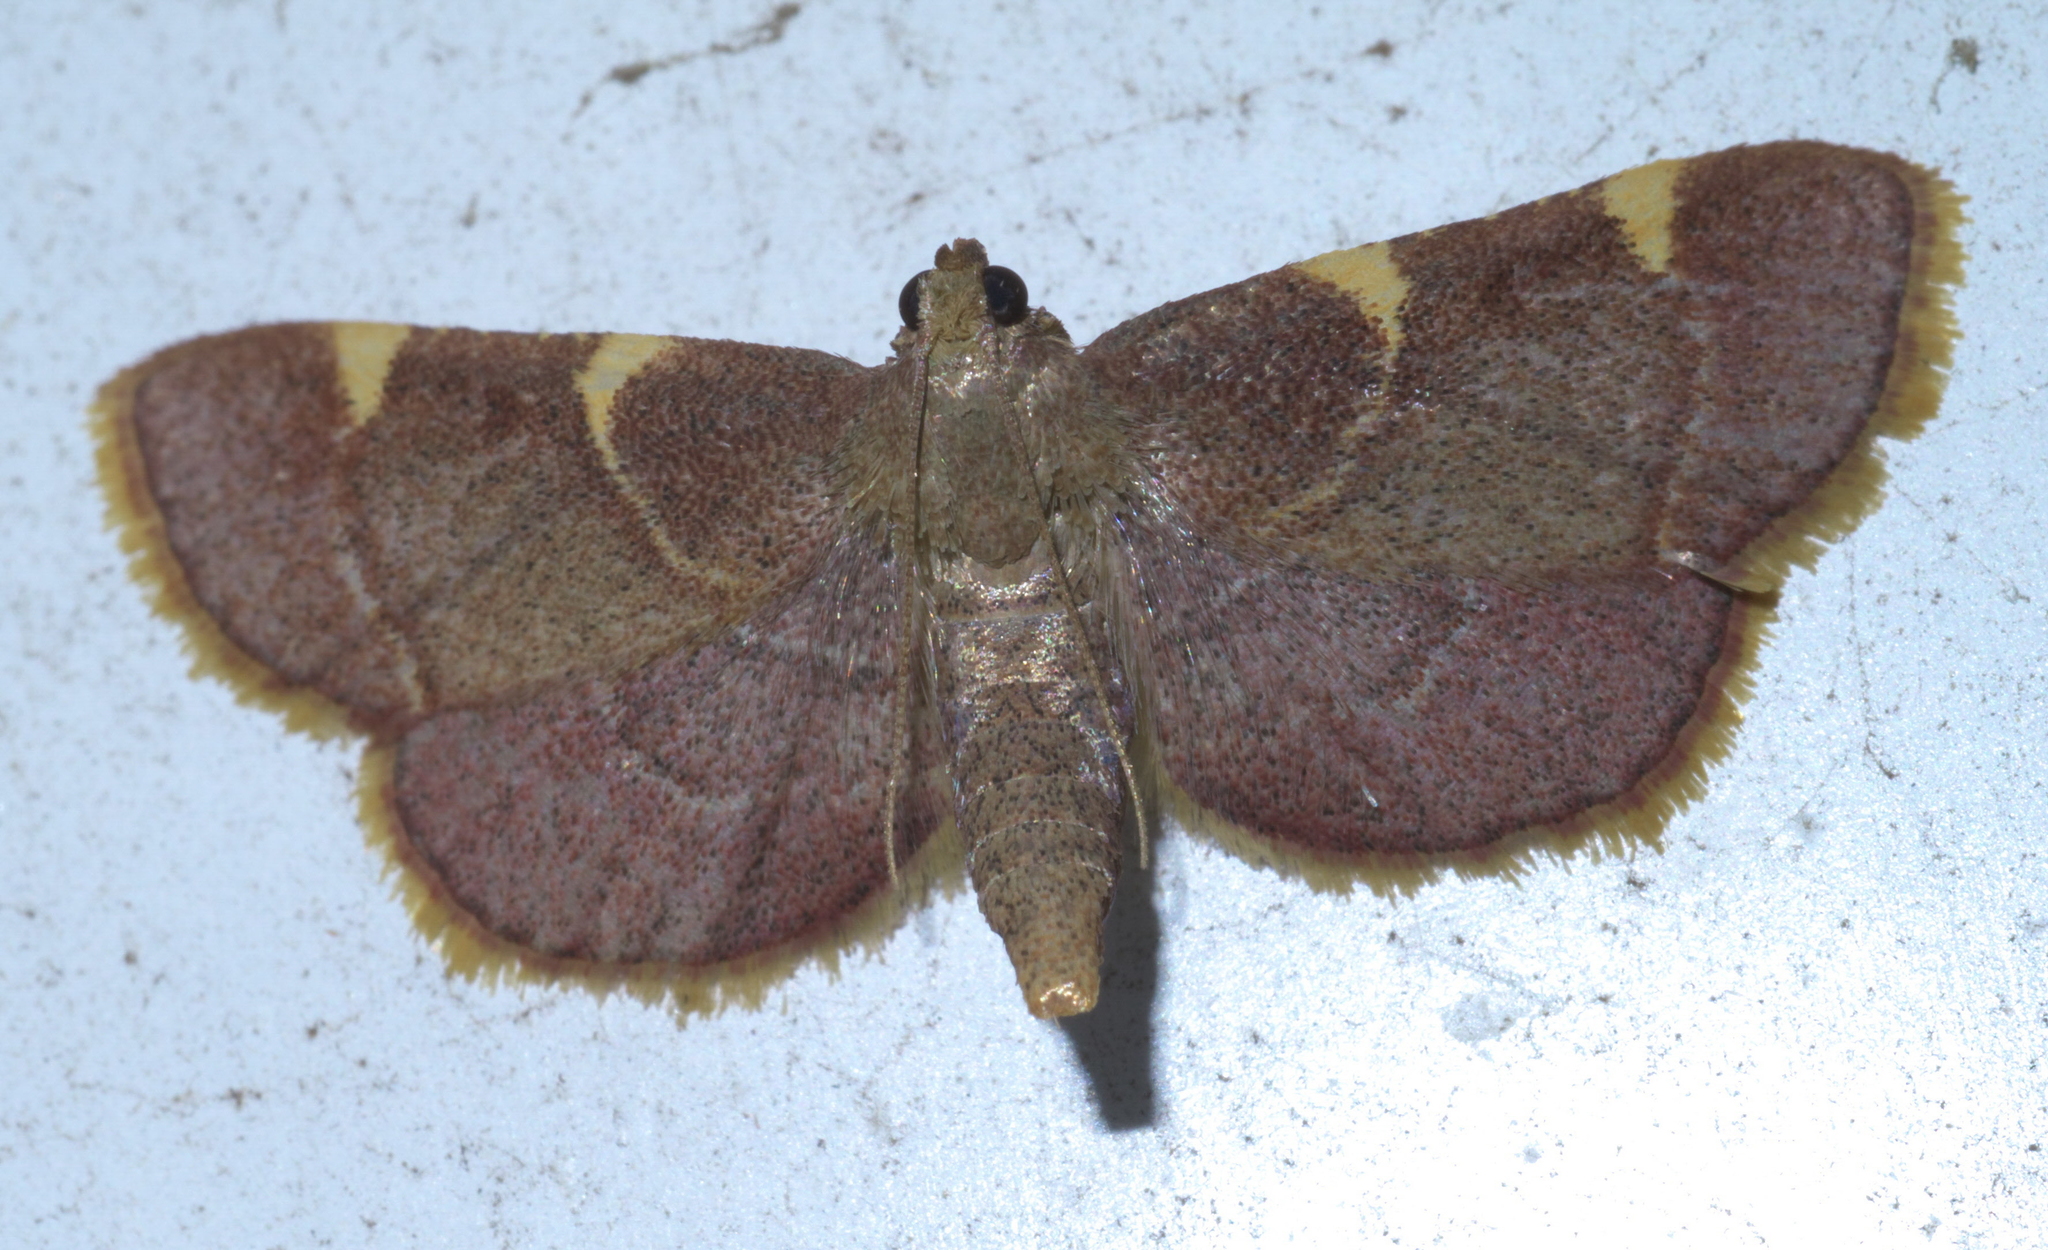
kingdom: Animalia
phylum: Arthropoda
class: Insecta
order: Lepidoptera
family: Pyralidae
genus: Hypsopygia
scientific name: Hypsopygia olinalis
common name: Yellow-fringed dolichomia moth
